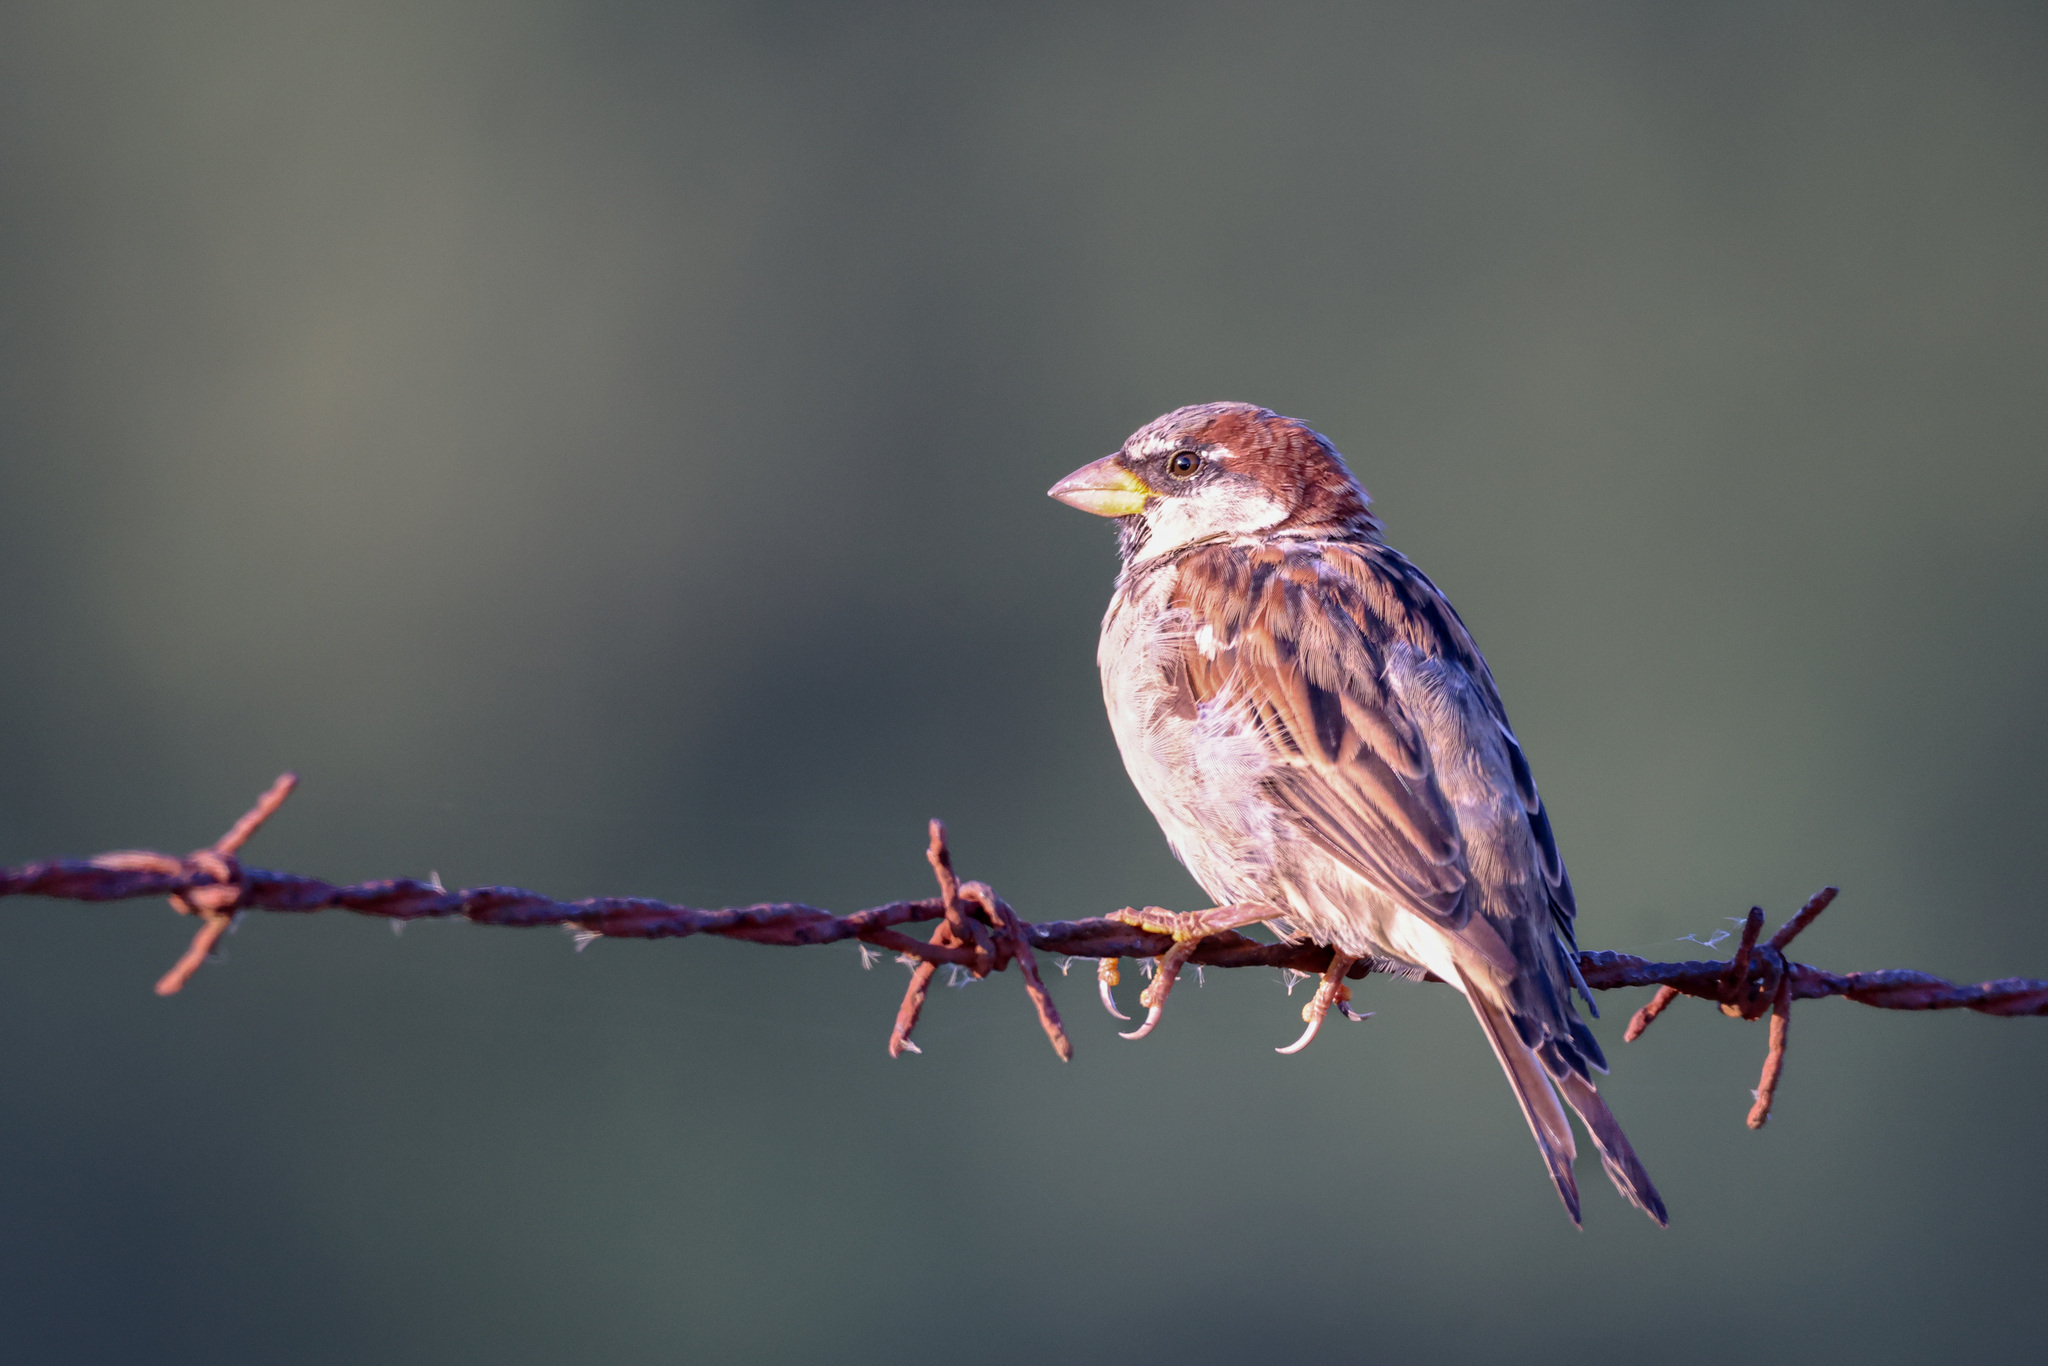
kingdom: Animalia
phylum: Chordata
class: Aves
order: Passeriformes
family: Passeridae
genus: Passer
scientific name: Passer domesticus
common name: House sparrow
